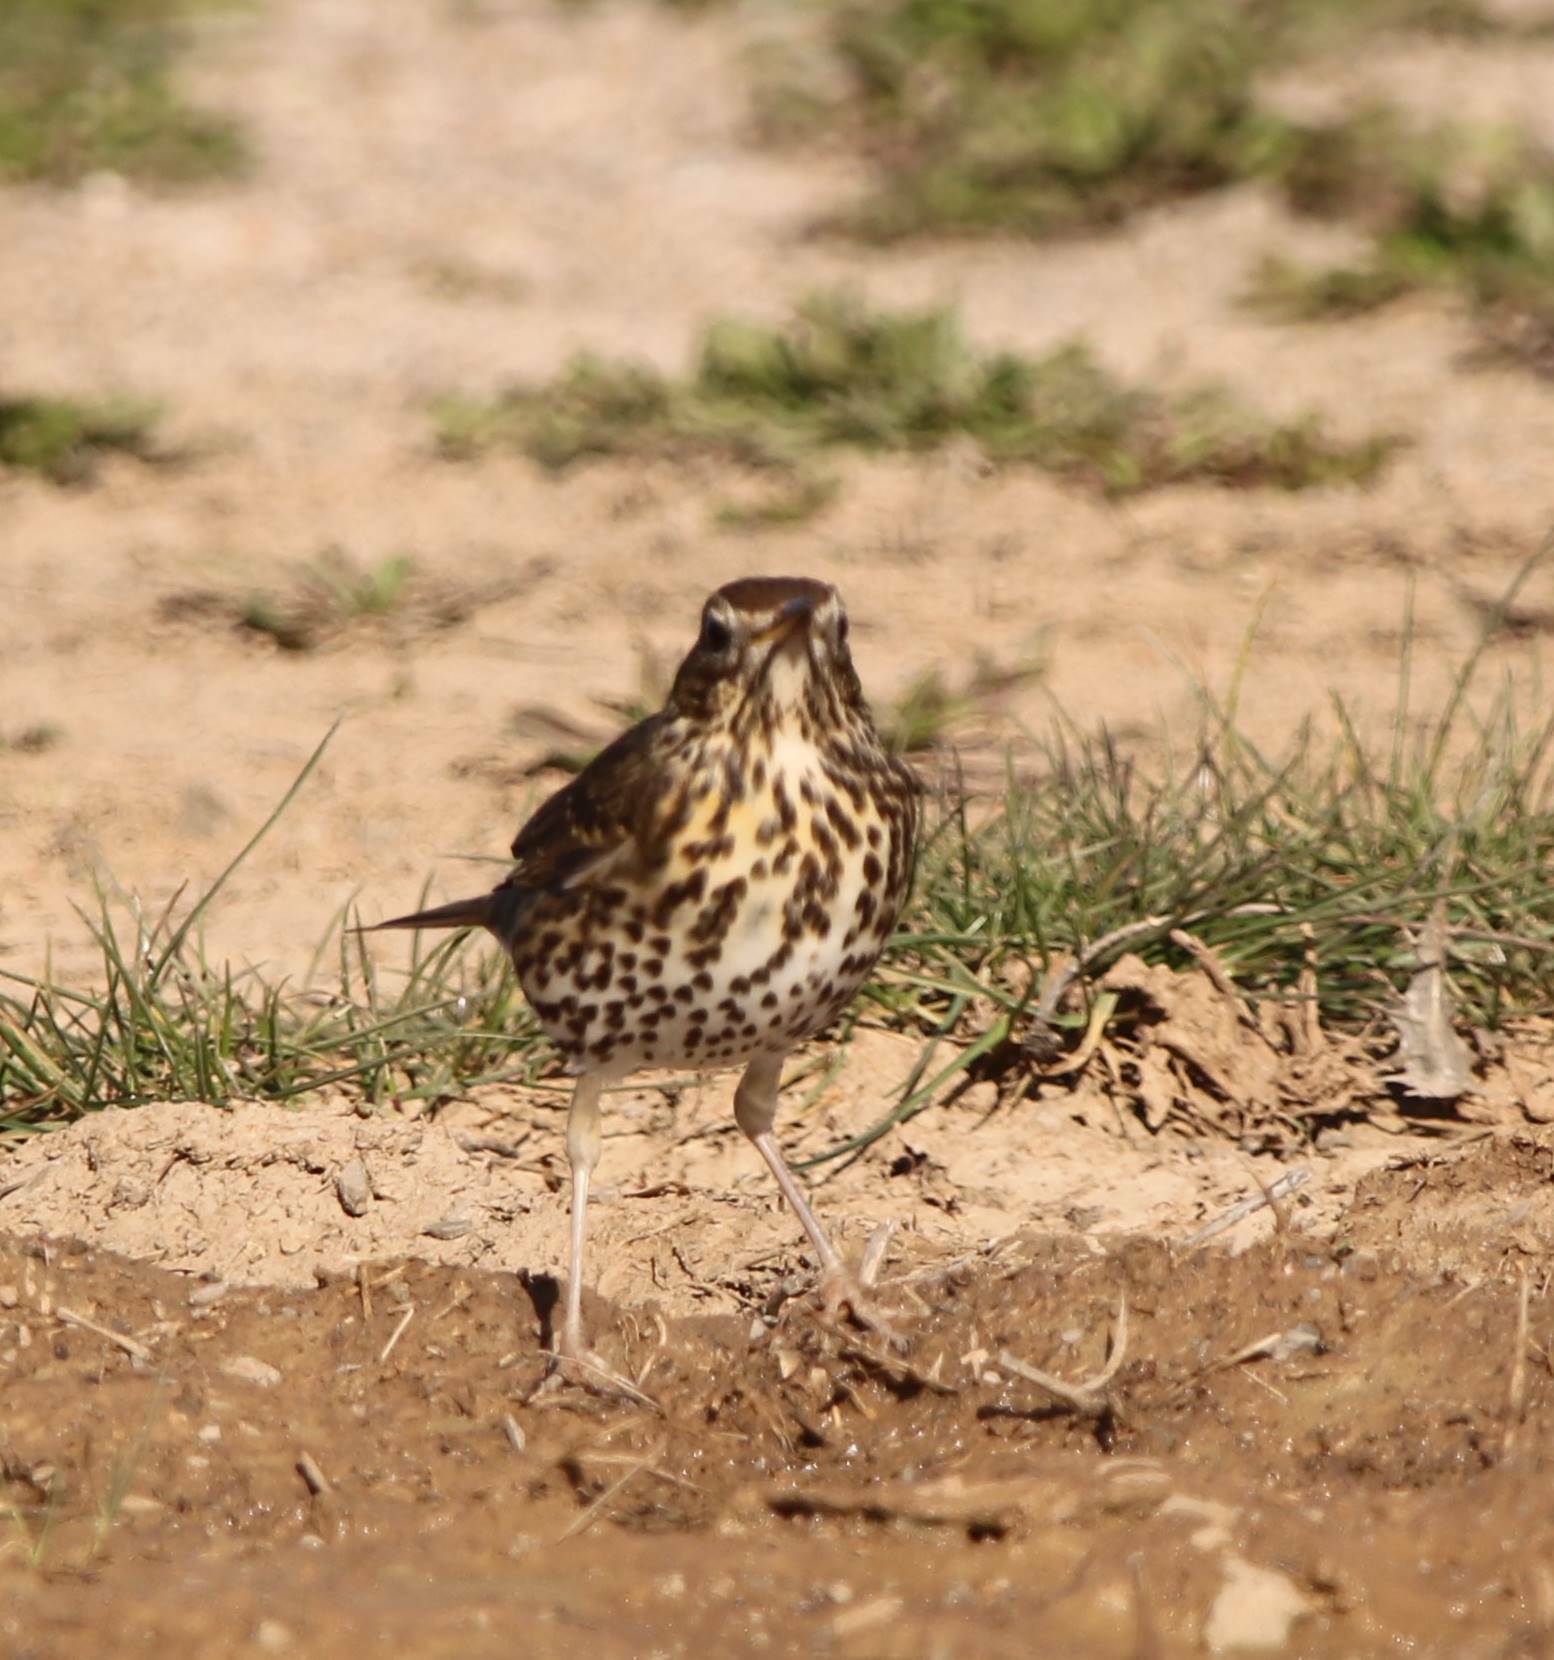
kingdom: Animalia
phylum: Chordata
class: Aves
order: Passeriformes
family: Turdidae
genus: Turdus
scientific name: Turdus philomelos
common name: Song thrush
